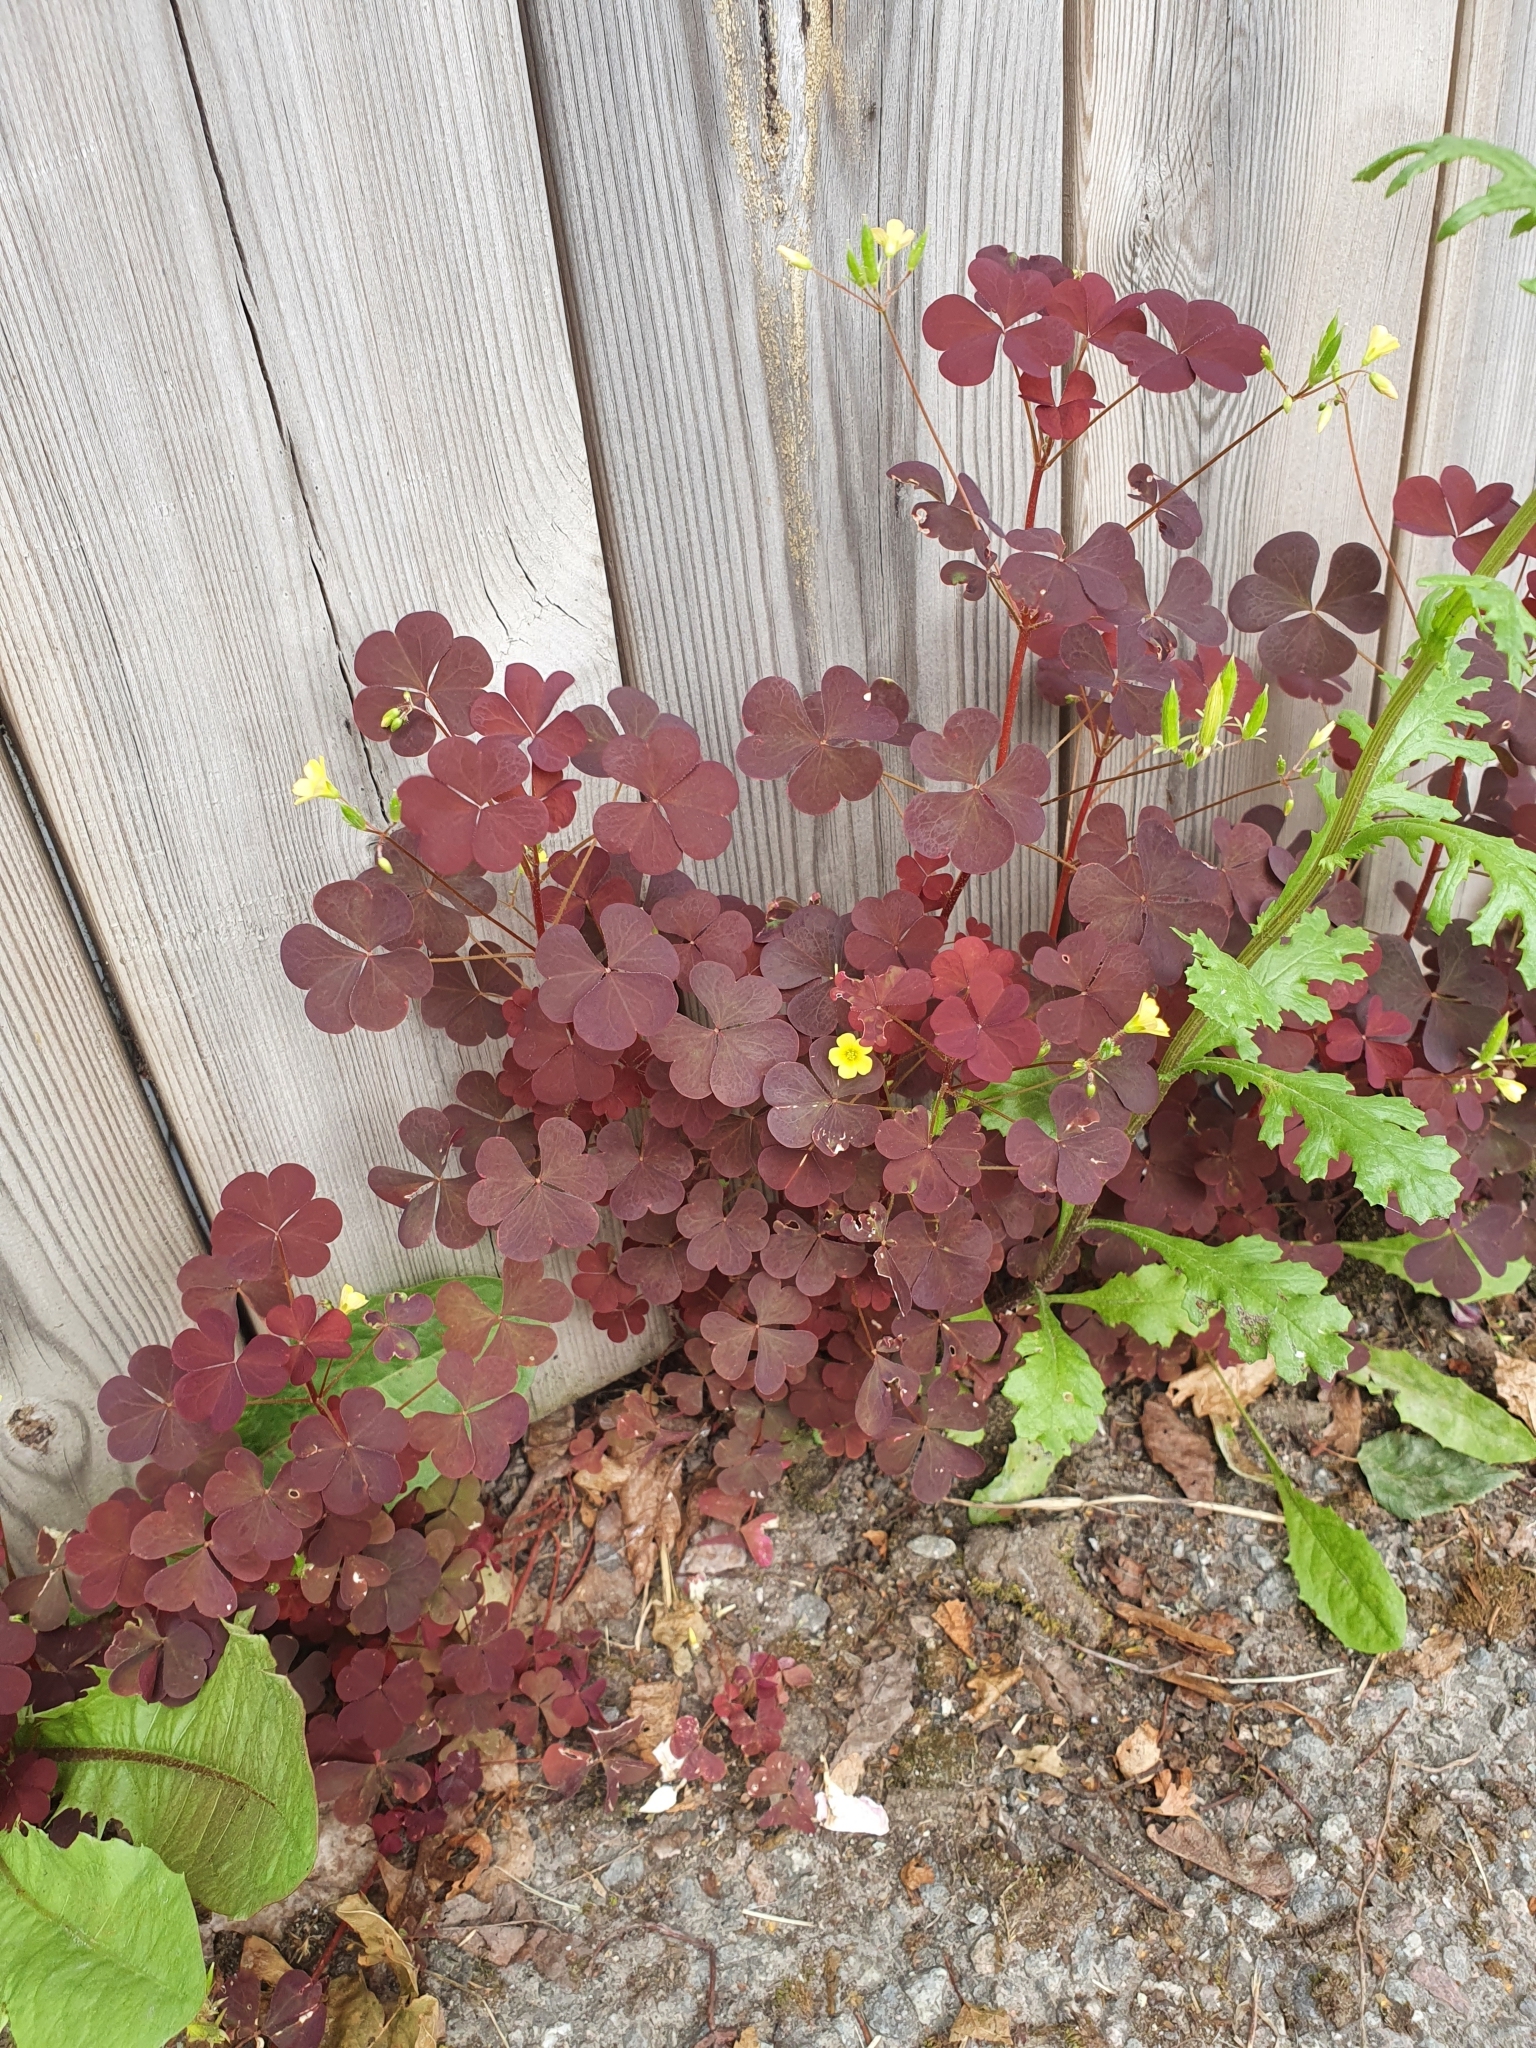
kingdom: Plantae
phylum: Tracheophyta
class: Magnoliopsida
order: Oxalidales
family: Oxalidaceae
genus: Oxalis
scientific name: Oxalis stricta
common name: Upright yellow-sorrel
